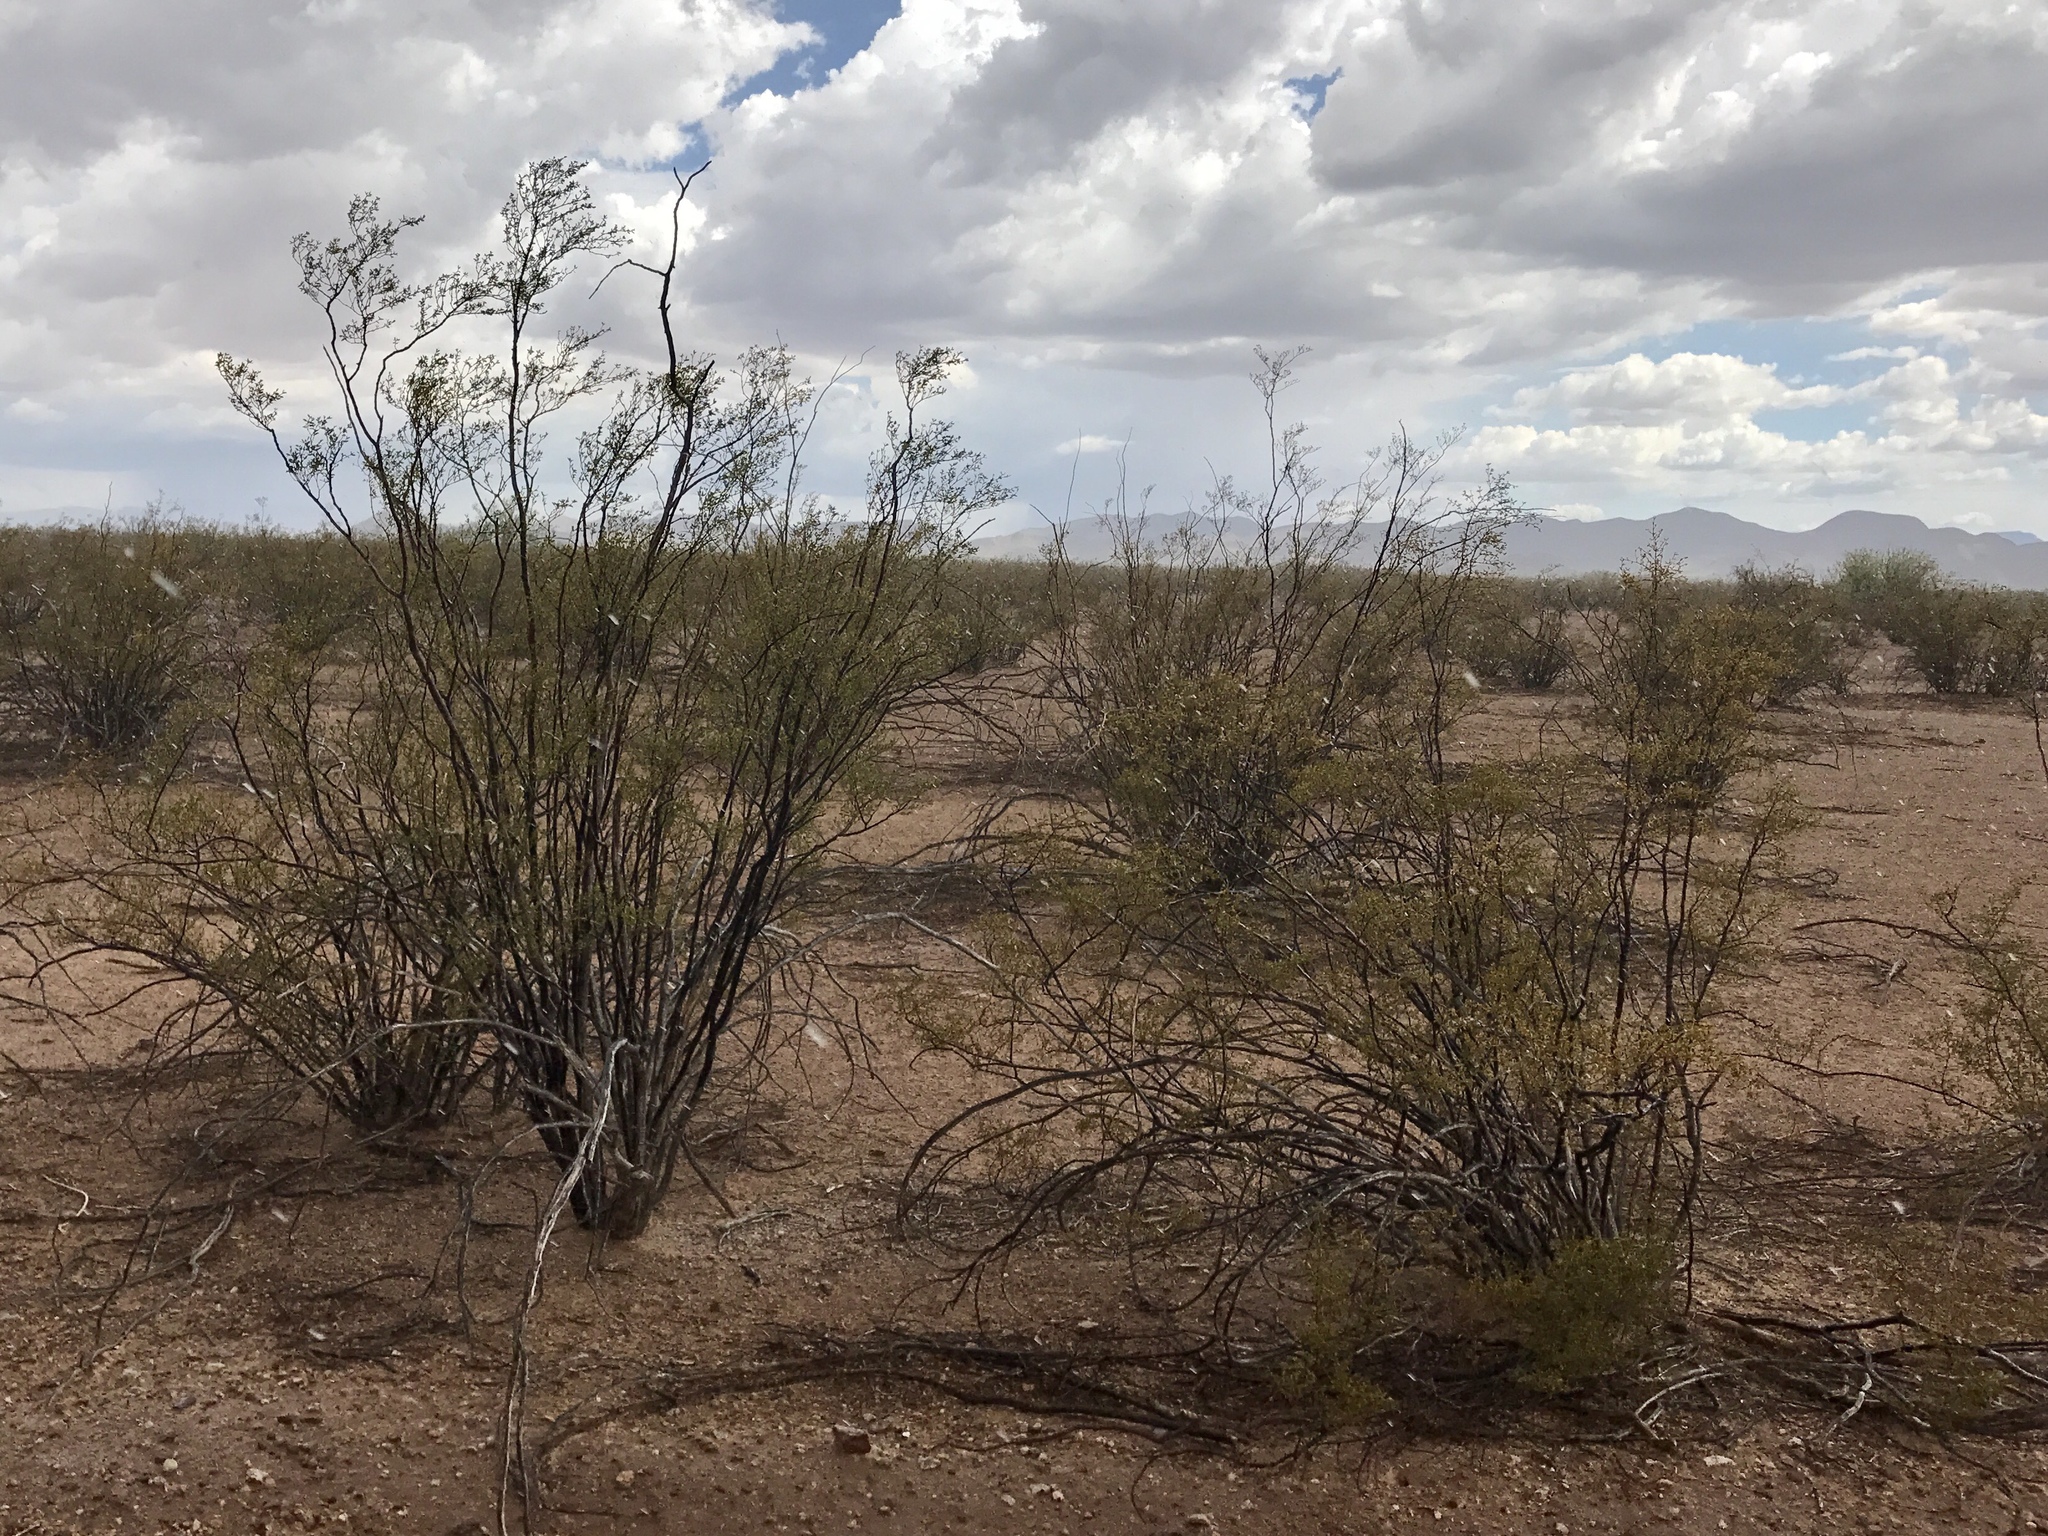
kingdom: Plantae
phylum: Tracheophyta
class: Magnoliopsida
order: Zygophyllales
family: Zygophyllaceae
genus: Larrea
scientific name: Larrea tridentata
